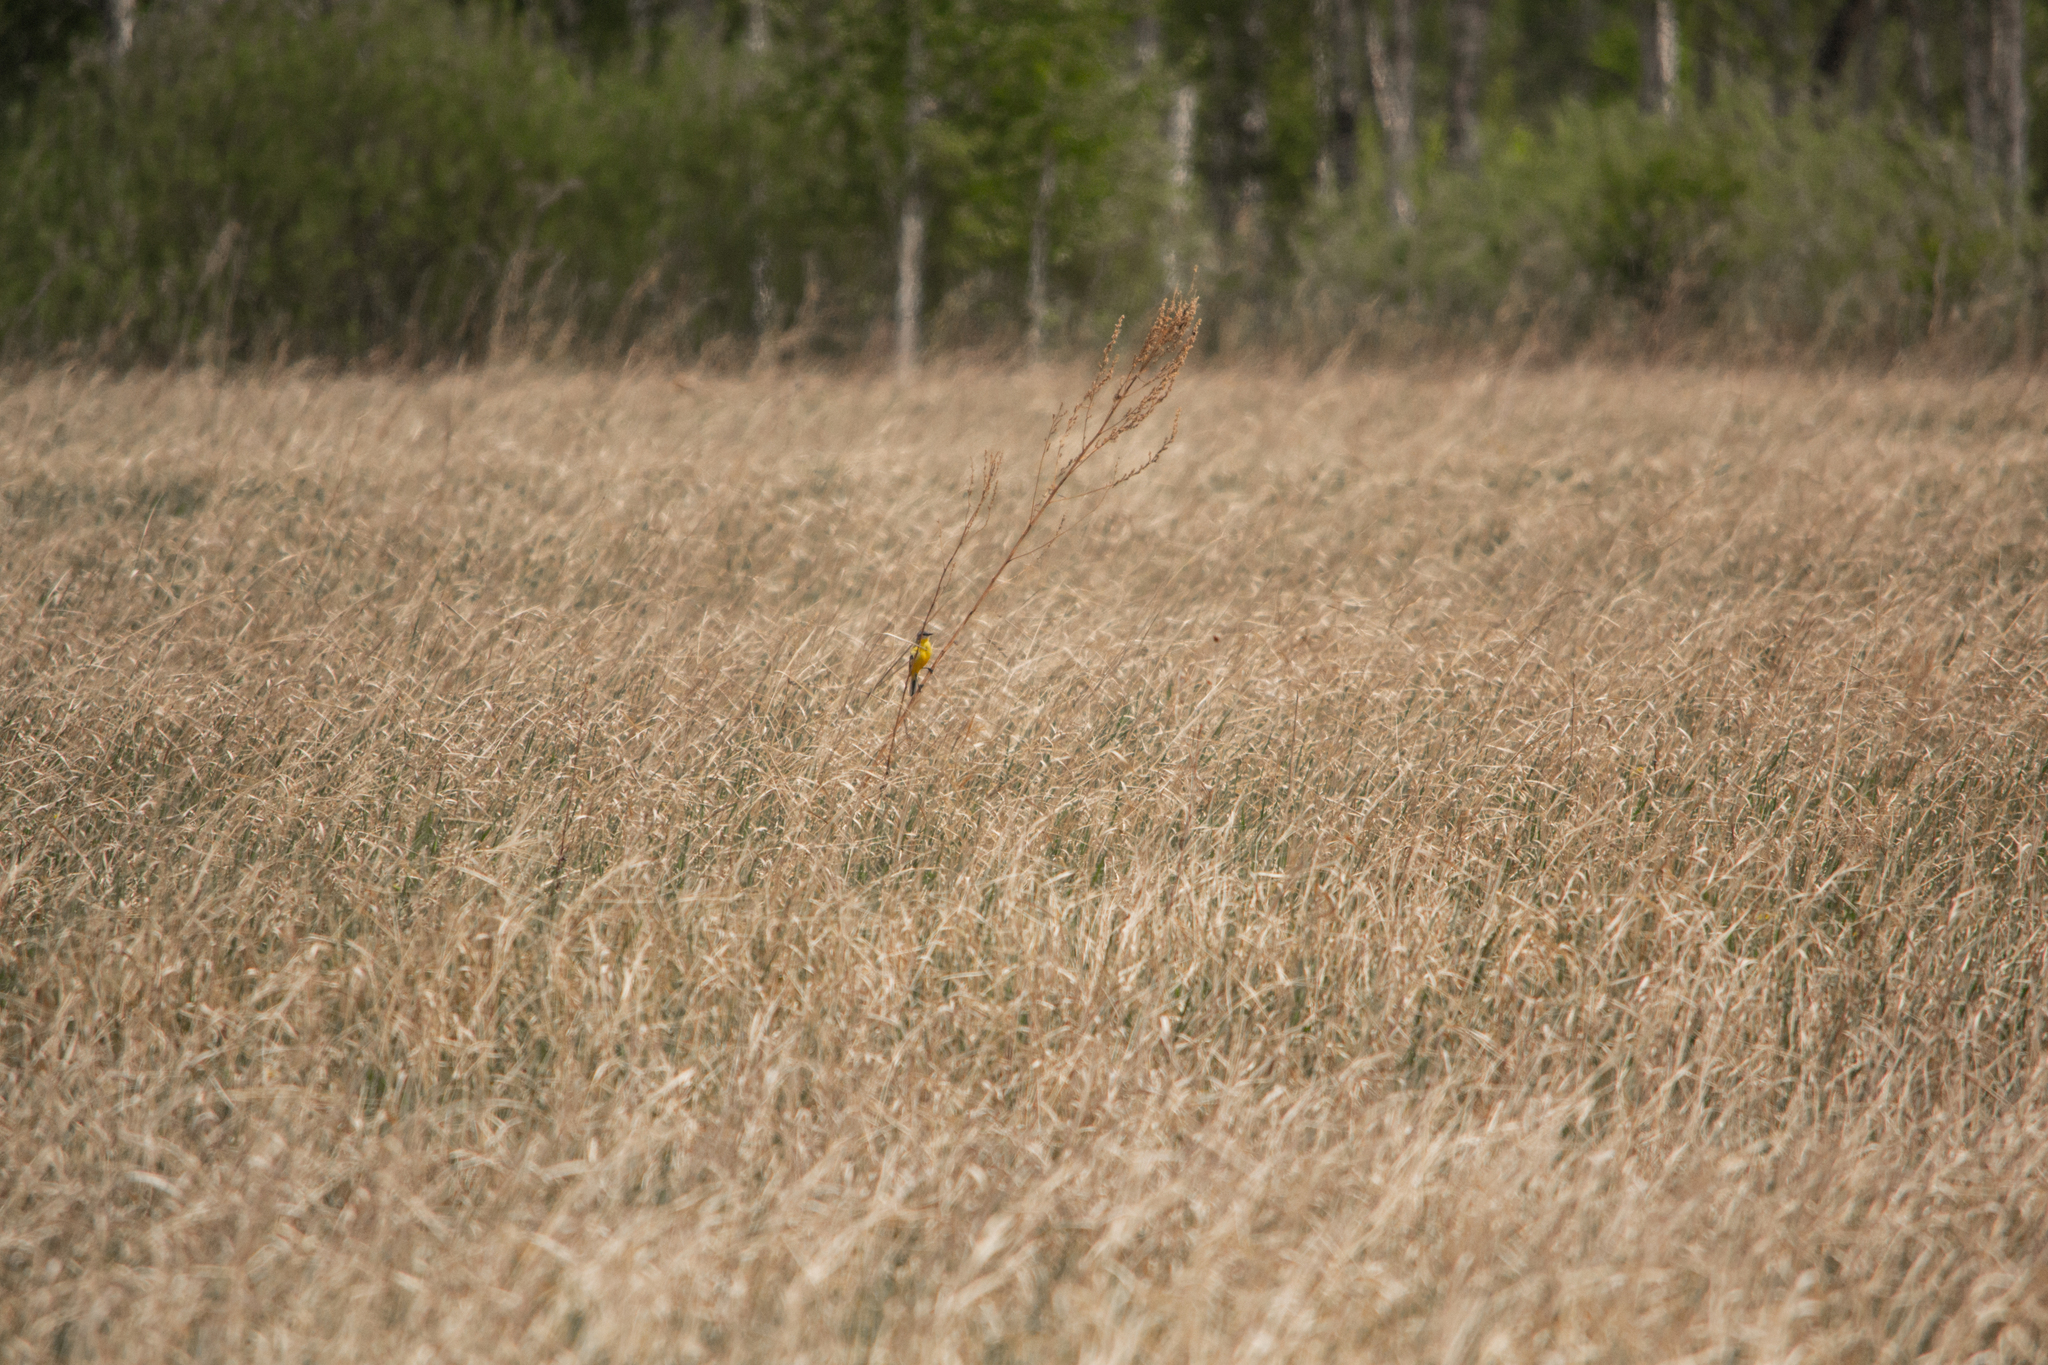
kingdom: Animalia
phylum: Chordata
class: Aves
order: Passeriformes
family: Motacillidae
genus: Motacilla
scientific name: Motacilla flava
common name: Western yellow wagtail
